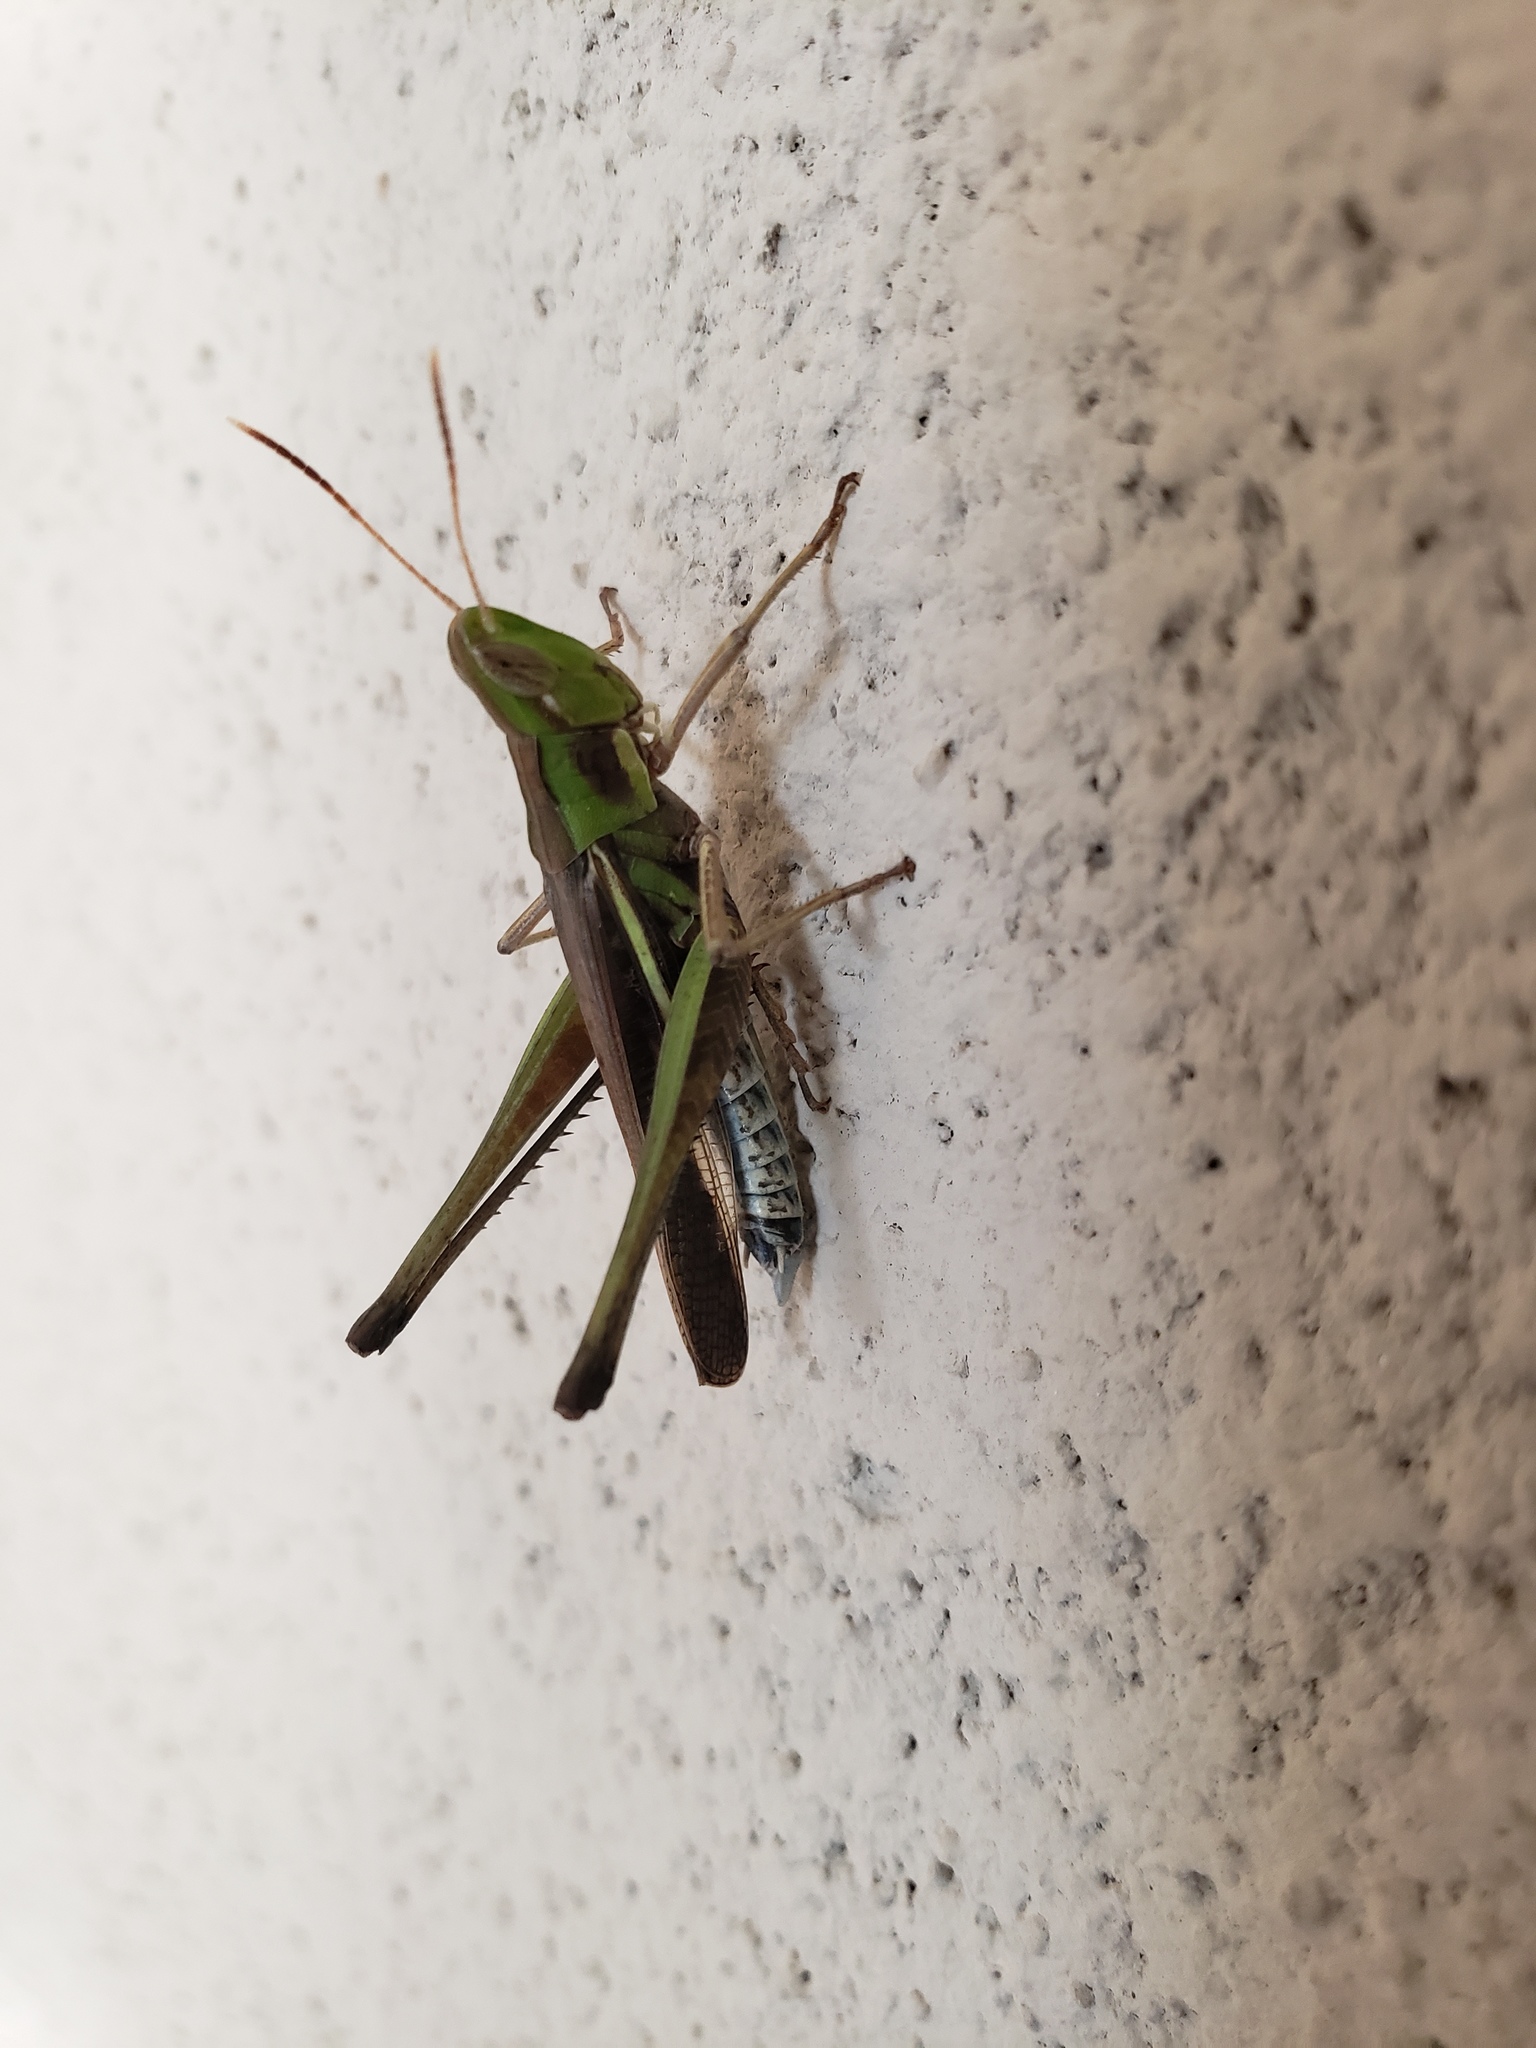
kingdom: Animalia
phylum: Arthropoda
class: Insecta
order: Orthoptera
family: Acrididae
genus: Syrbula
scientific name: Syrbula montezuma
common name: Montezuma's grasshopper
